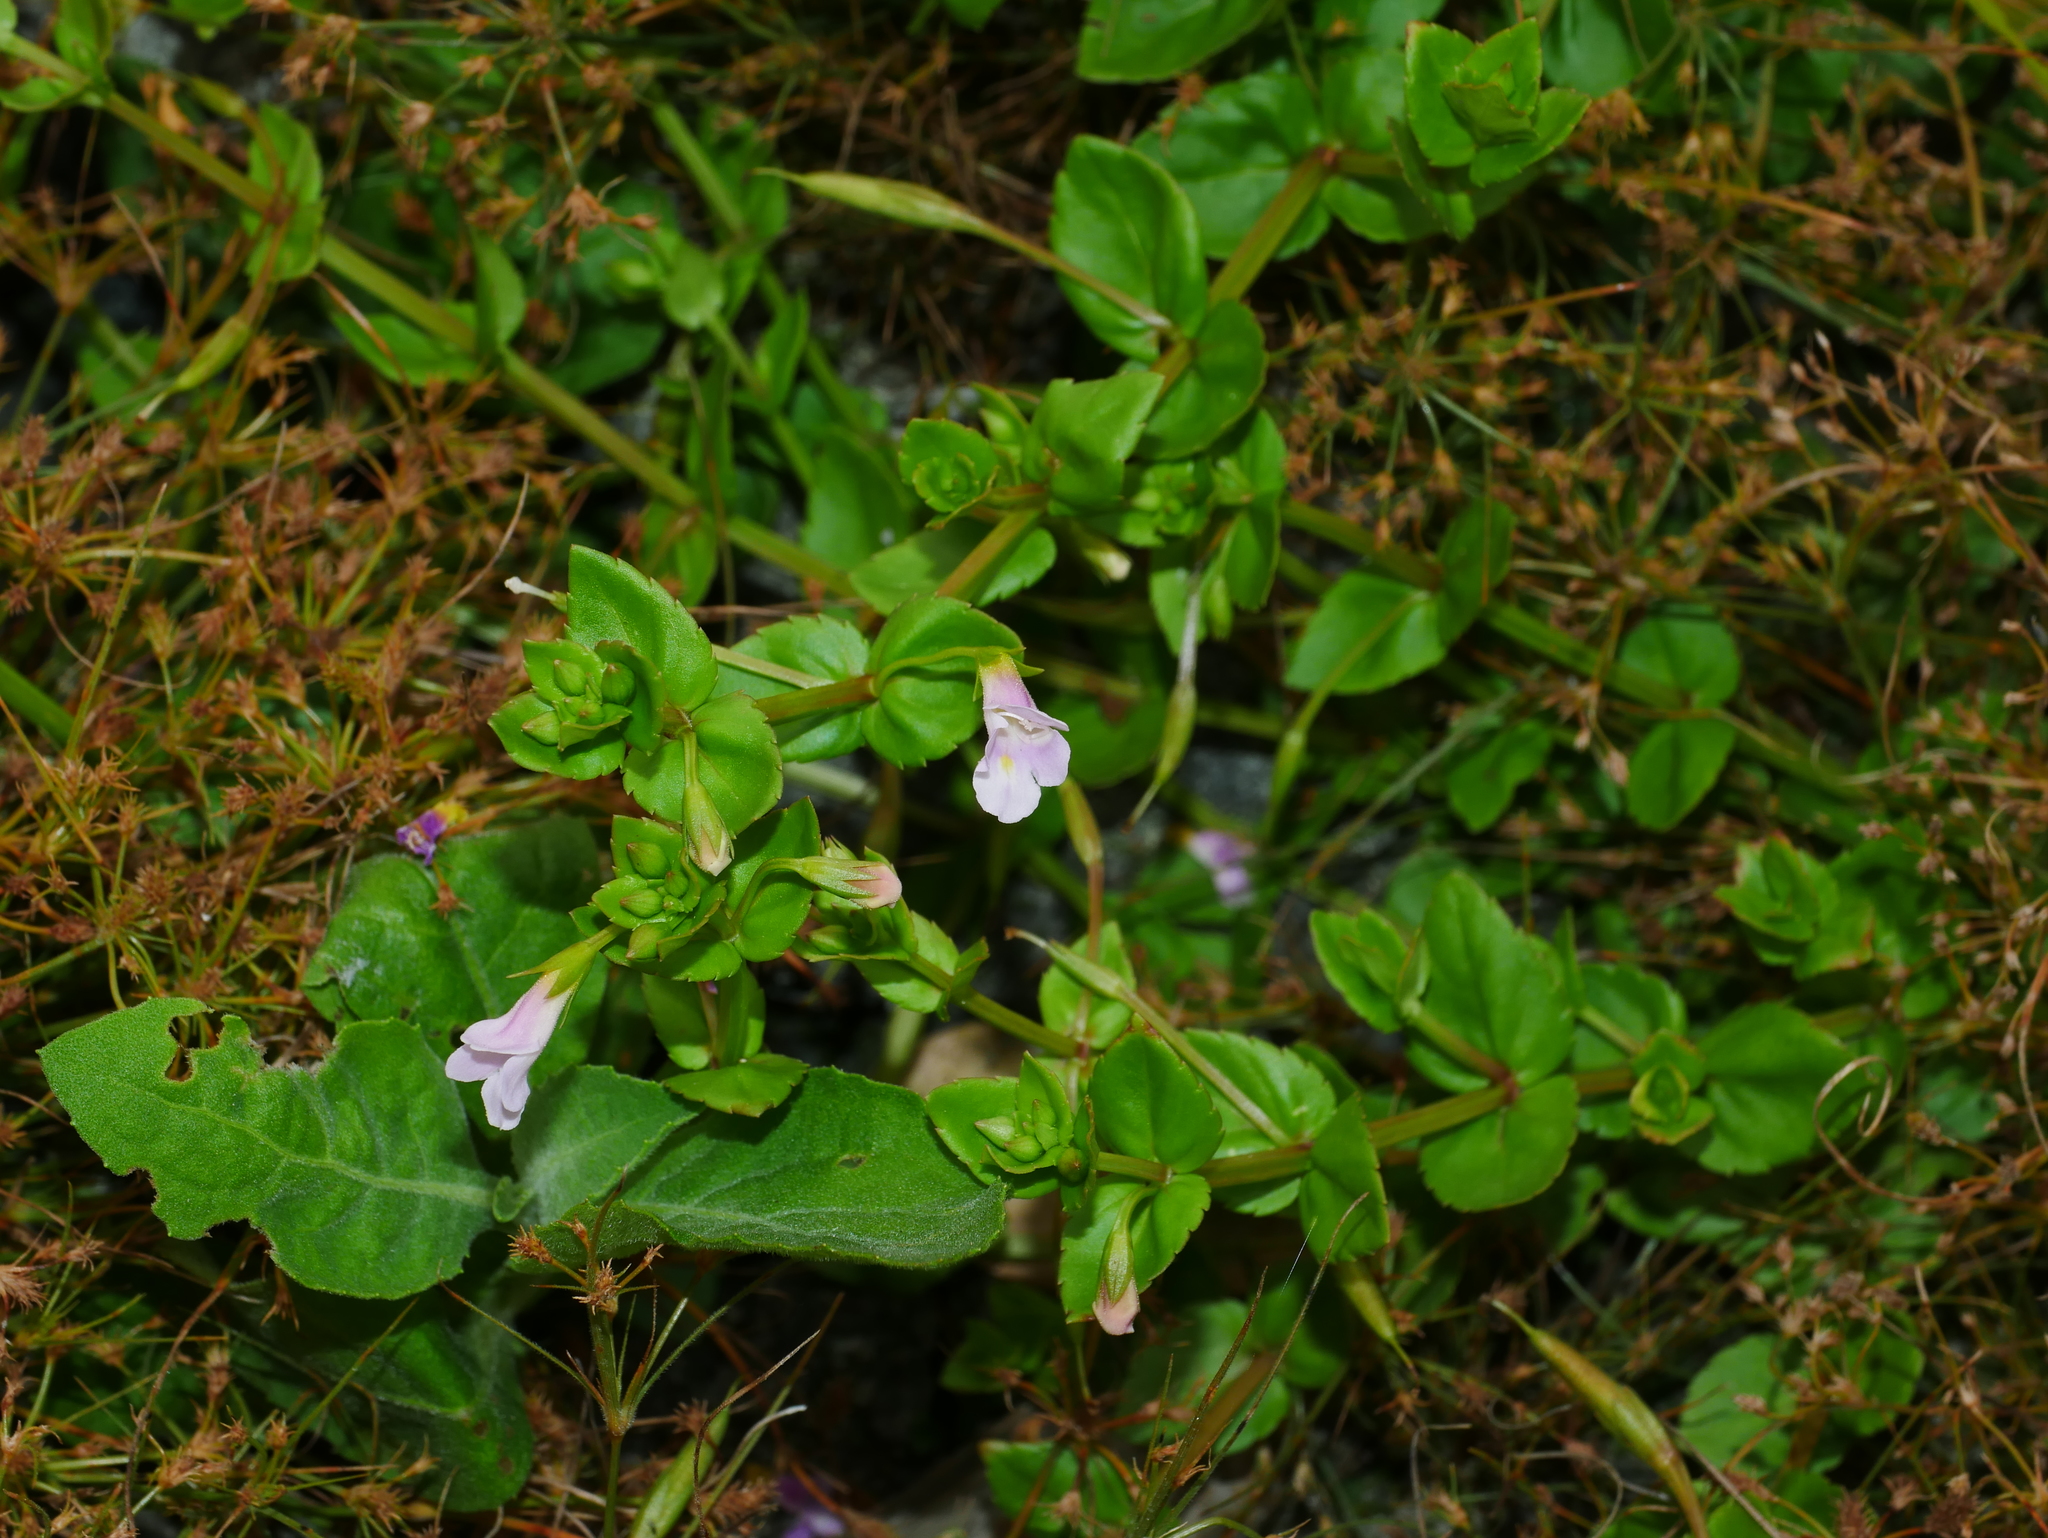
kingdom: Plantae
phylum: Tracheophyta
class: Magnoliopsida
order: Lamiales
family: Linderniaceae
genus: Torenia
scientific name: Torenia anagallis
